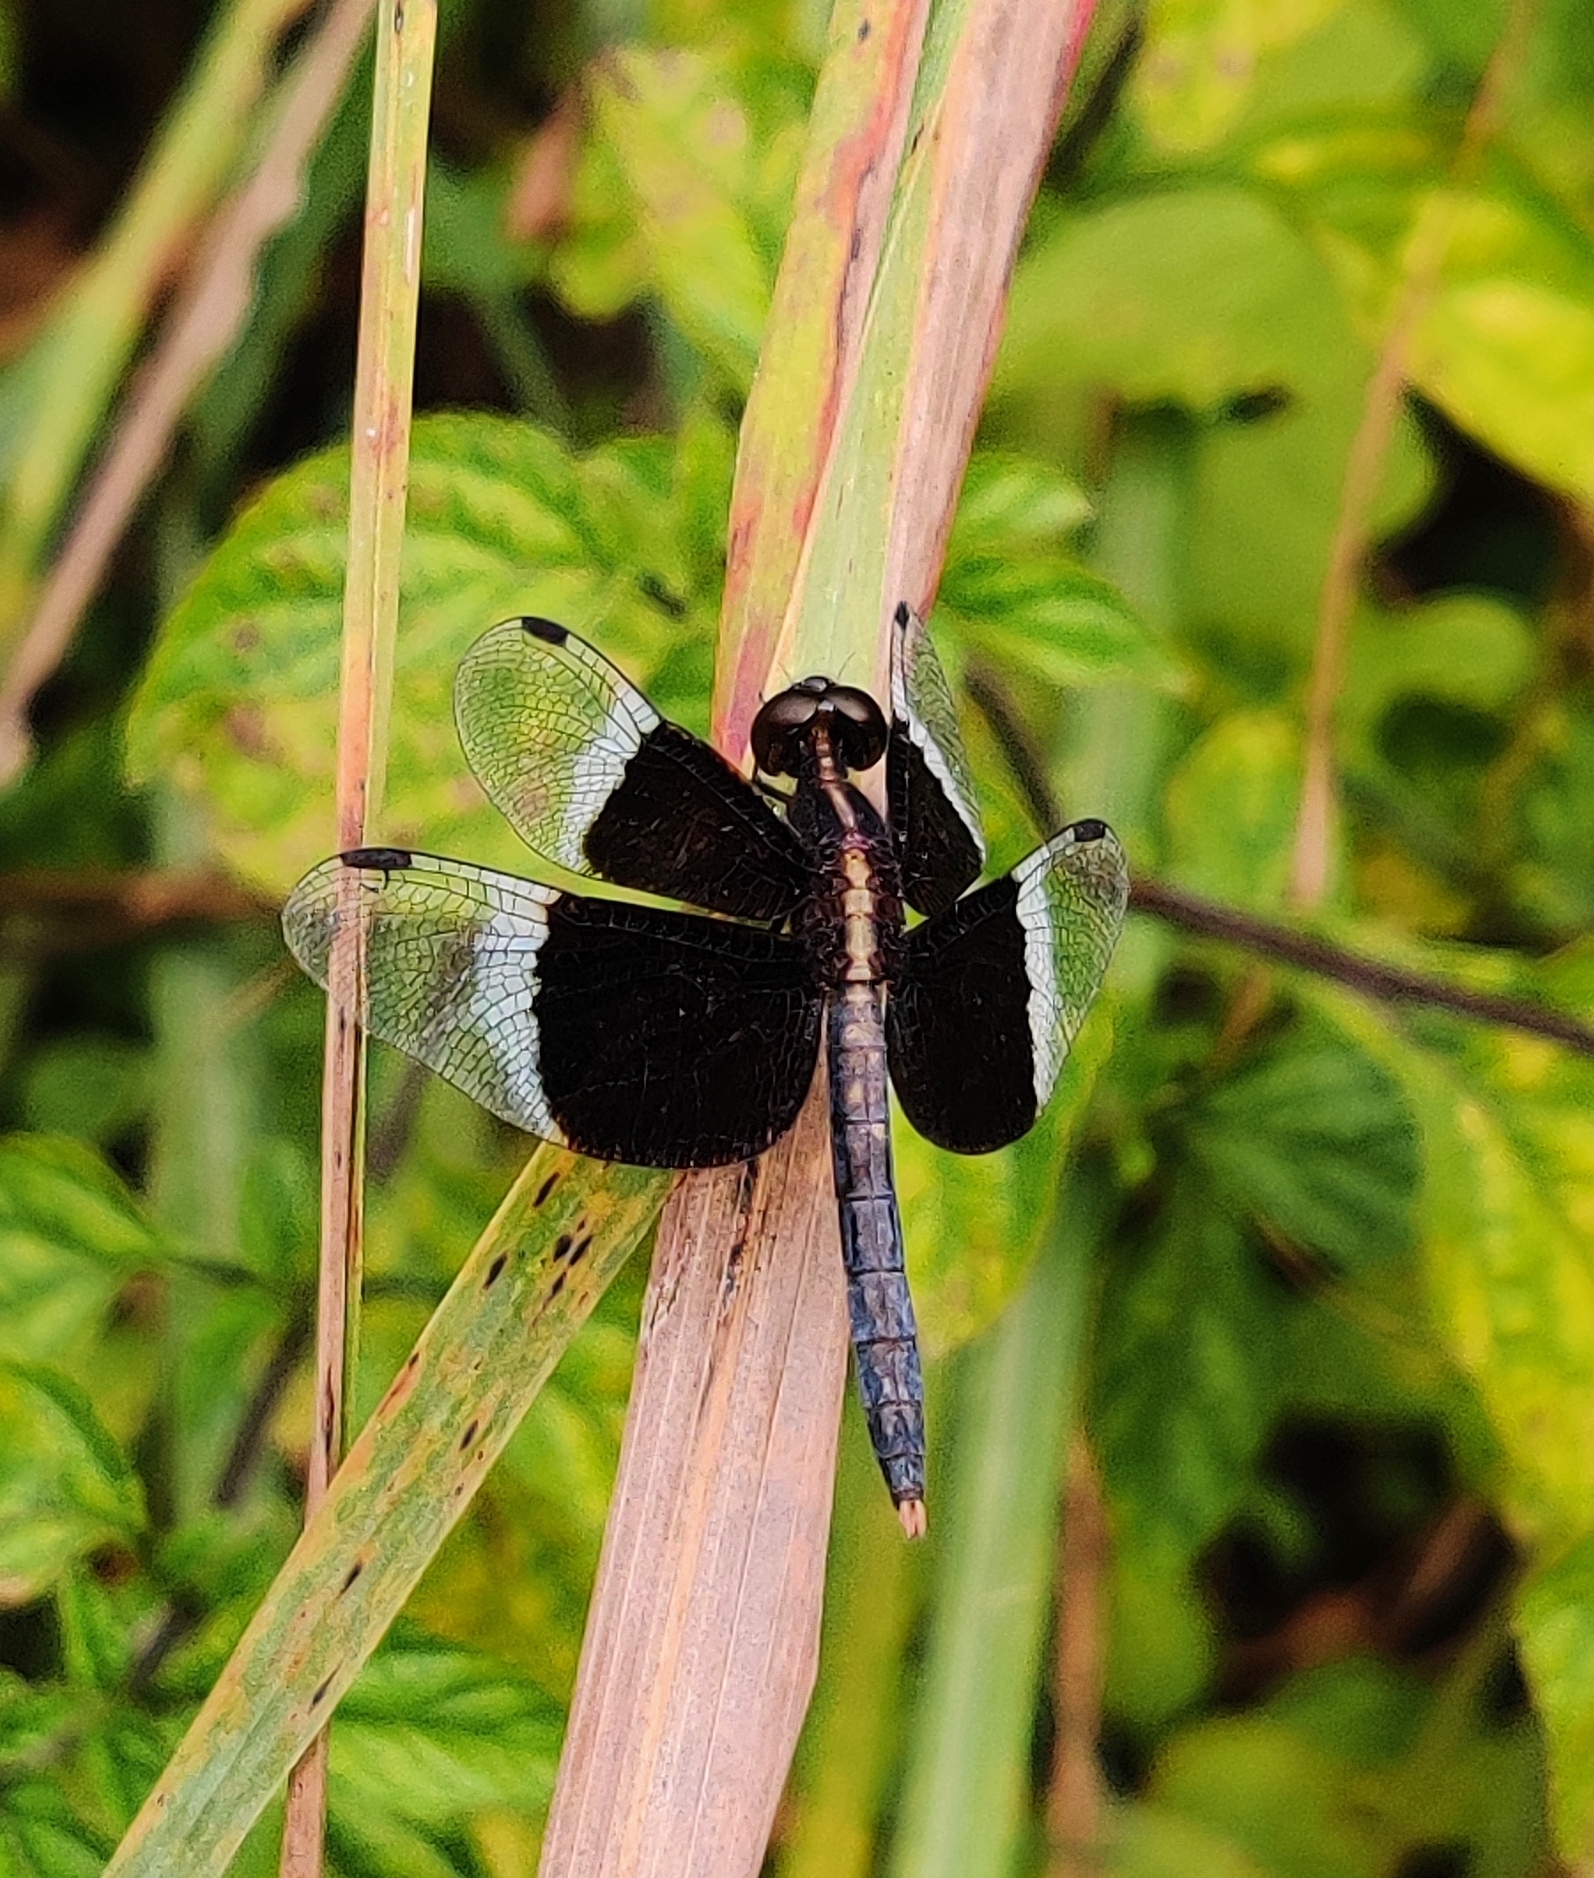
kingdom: Animalia
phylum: Arthropoda
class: Insecta
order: Odonata
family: Libellulidae
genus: Neurothemis
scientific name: Neurothemis tullia
